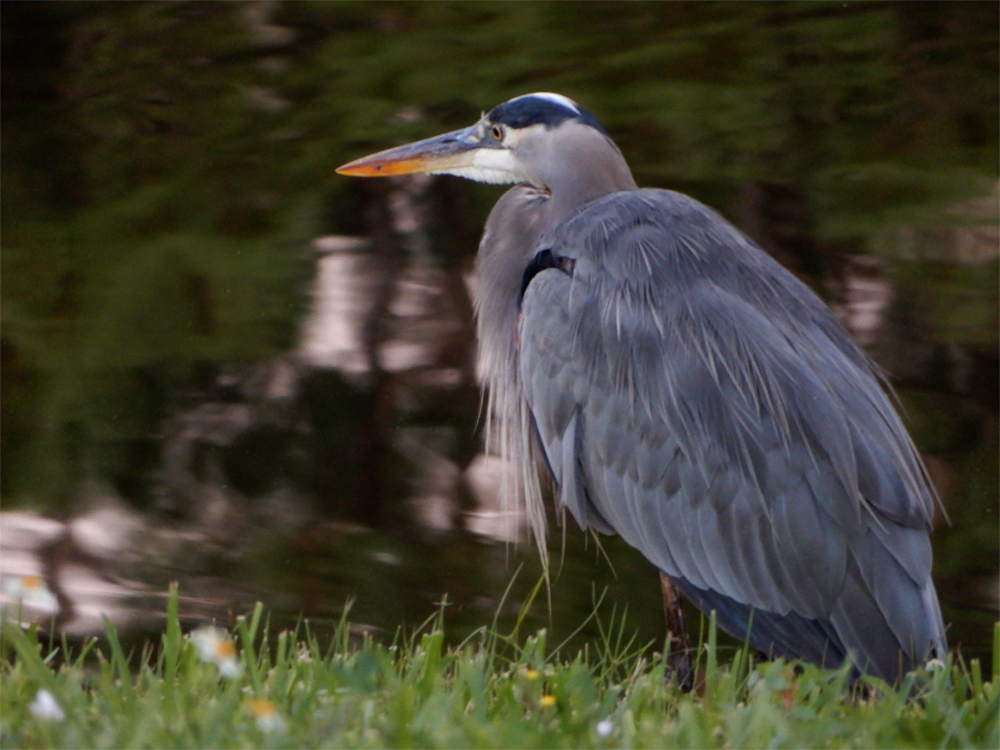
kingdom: Animalia
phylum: Chordata
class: Aves
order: Pelecaniformes
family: Ardeidae
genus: Ardea
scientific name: Ardea herodias
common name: Great blue heron
